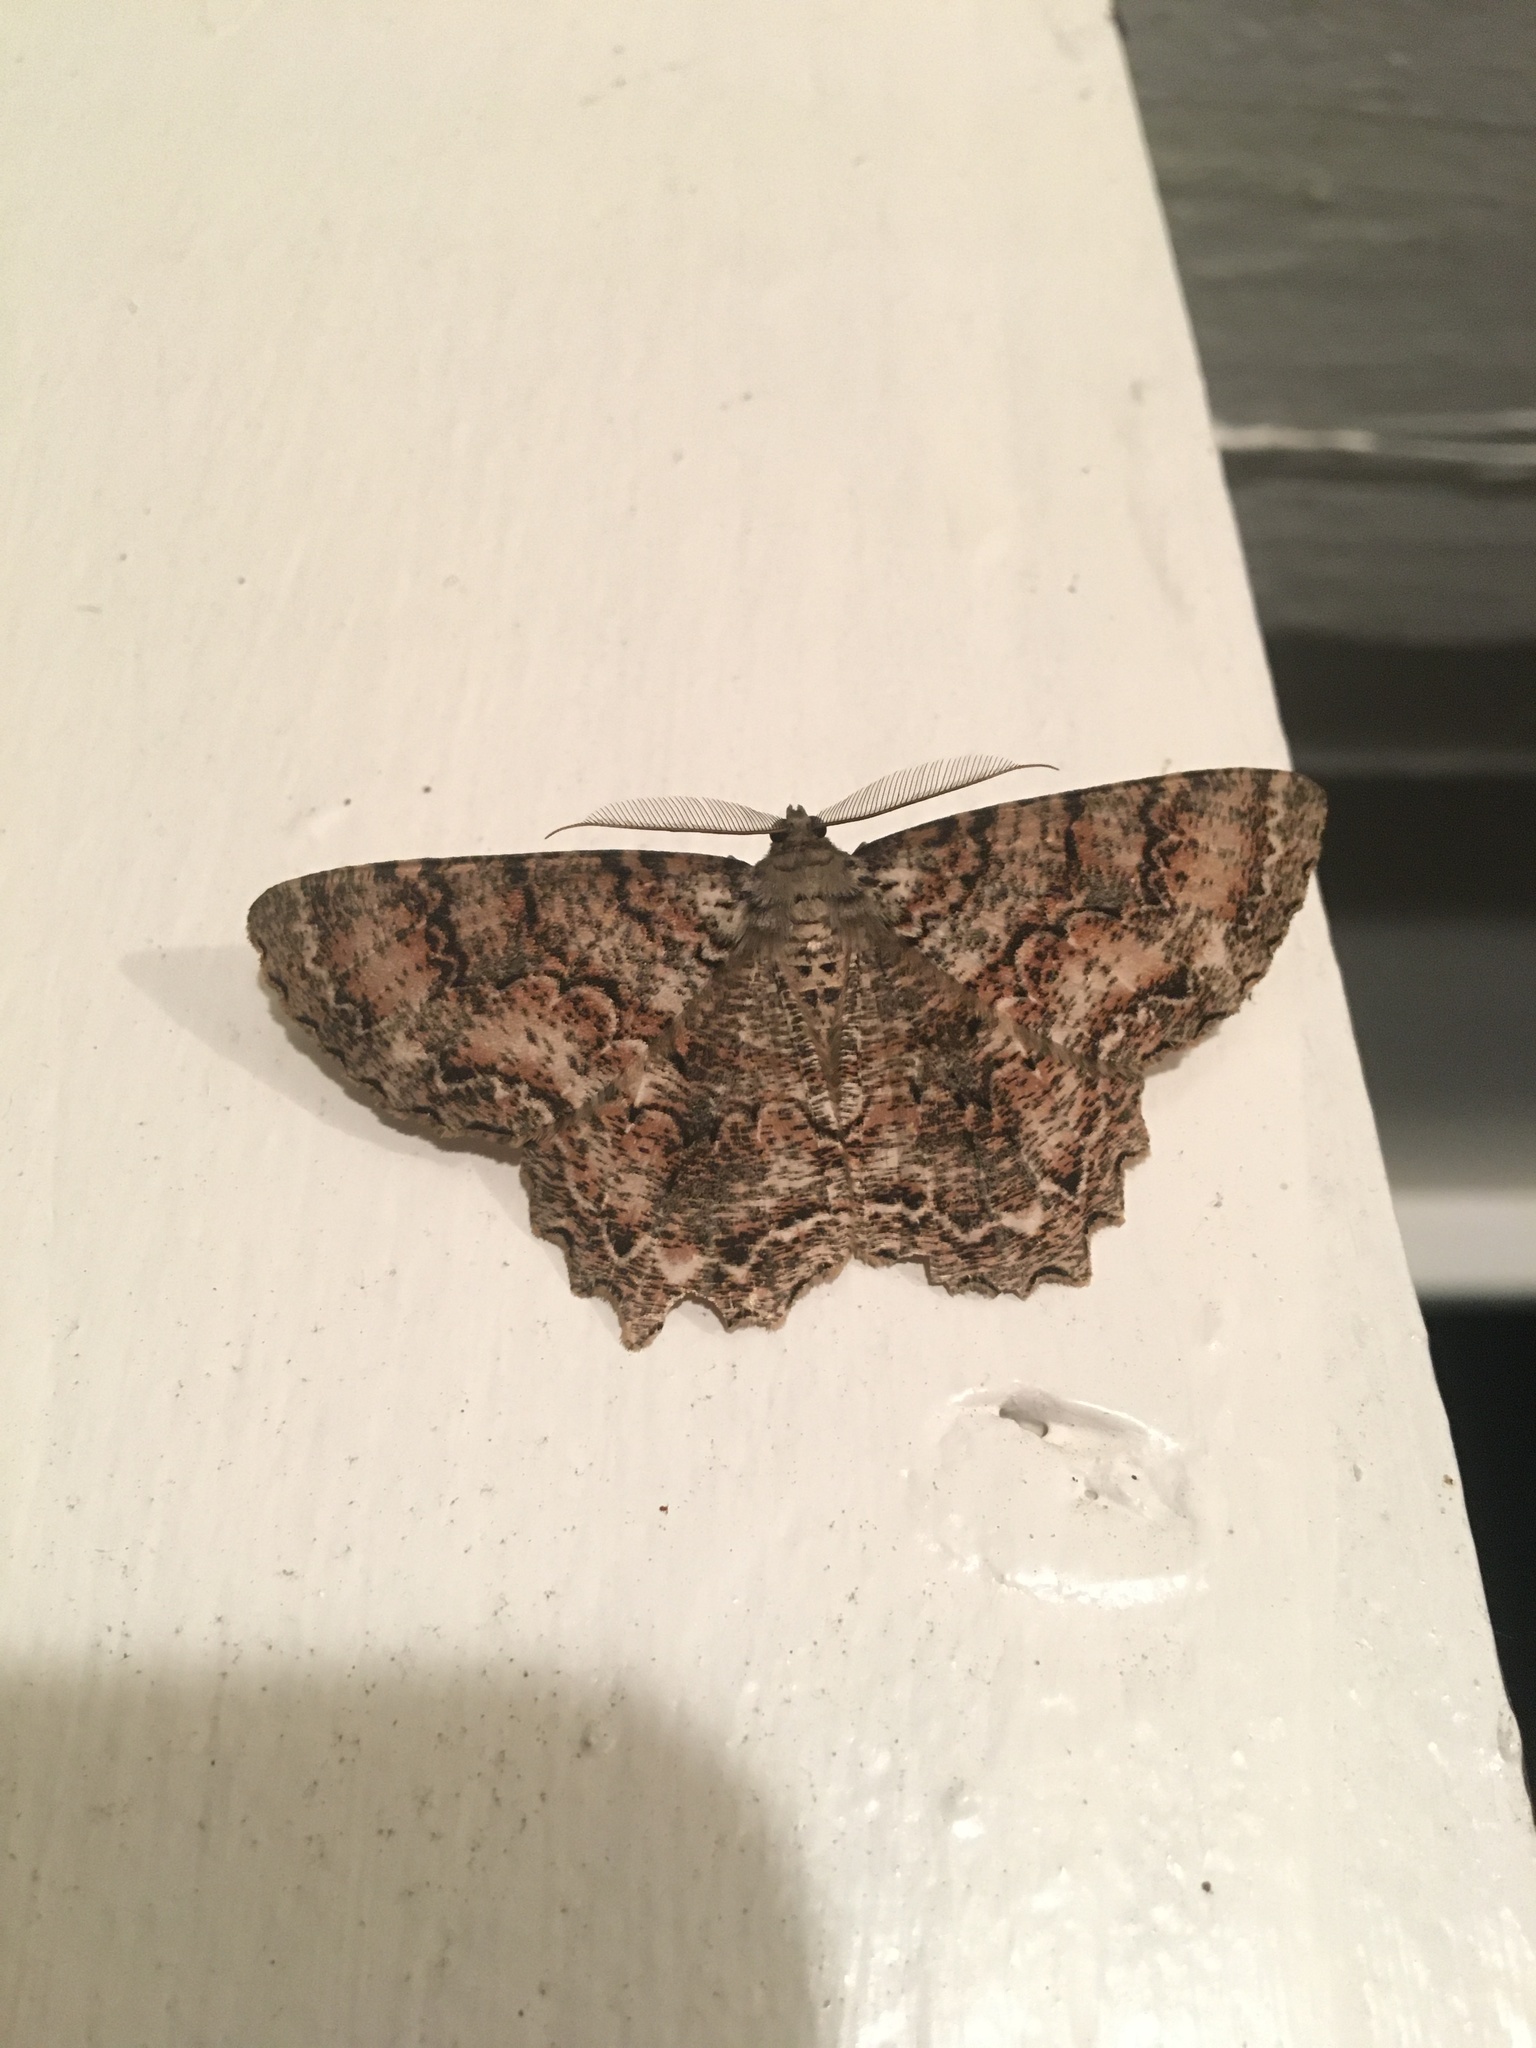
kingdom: Animalia
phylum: Arthropoda
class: Insecta
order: Lepidoptera
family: Geometridae
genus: Epimecis
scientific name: Epimecis hortaria
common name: Tulip-tree beauty
